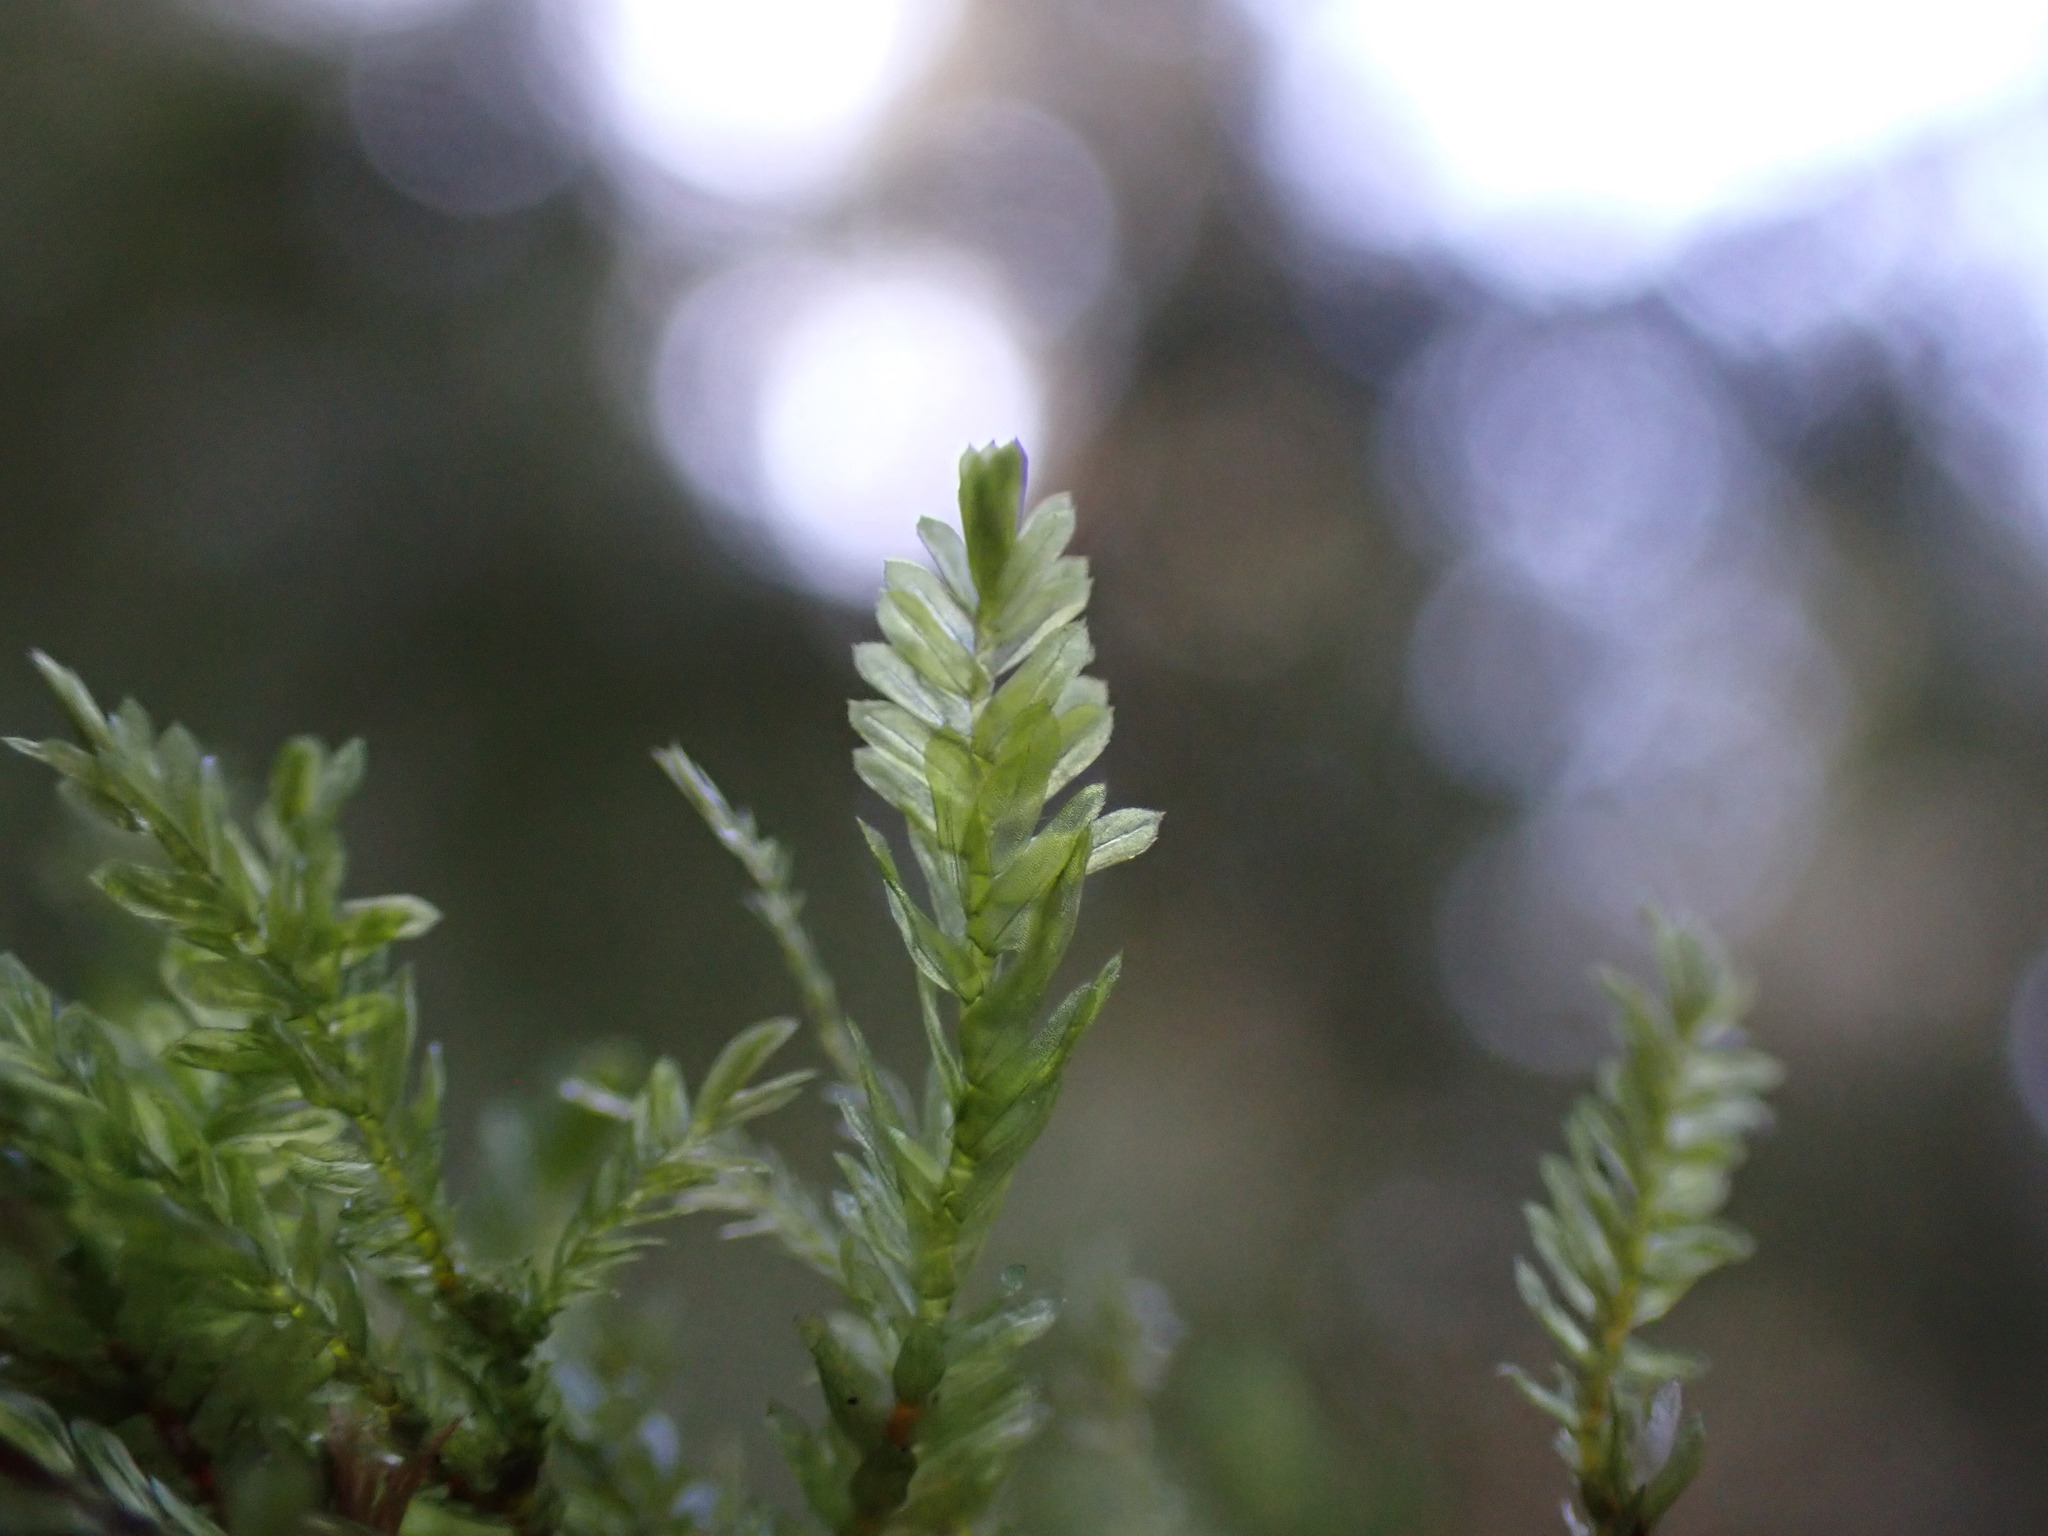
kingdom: Plantae
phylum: Bryophyta
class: Bryopsida
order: Hypnales
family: Neckeraceae
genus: Dannorrisia
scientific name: Dannorrisia bigelovii
